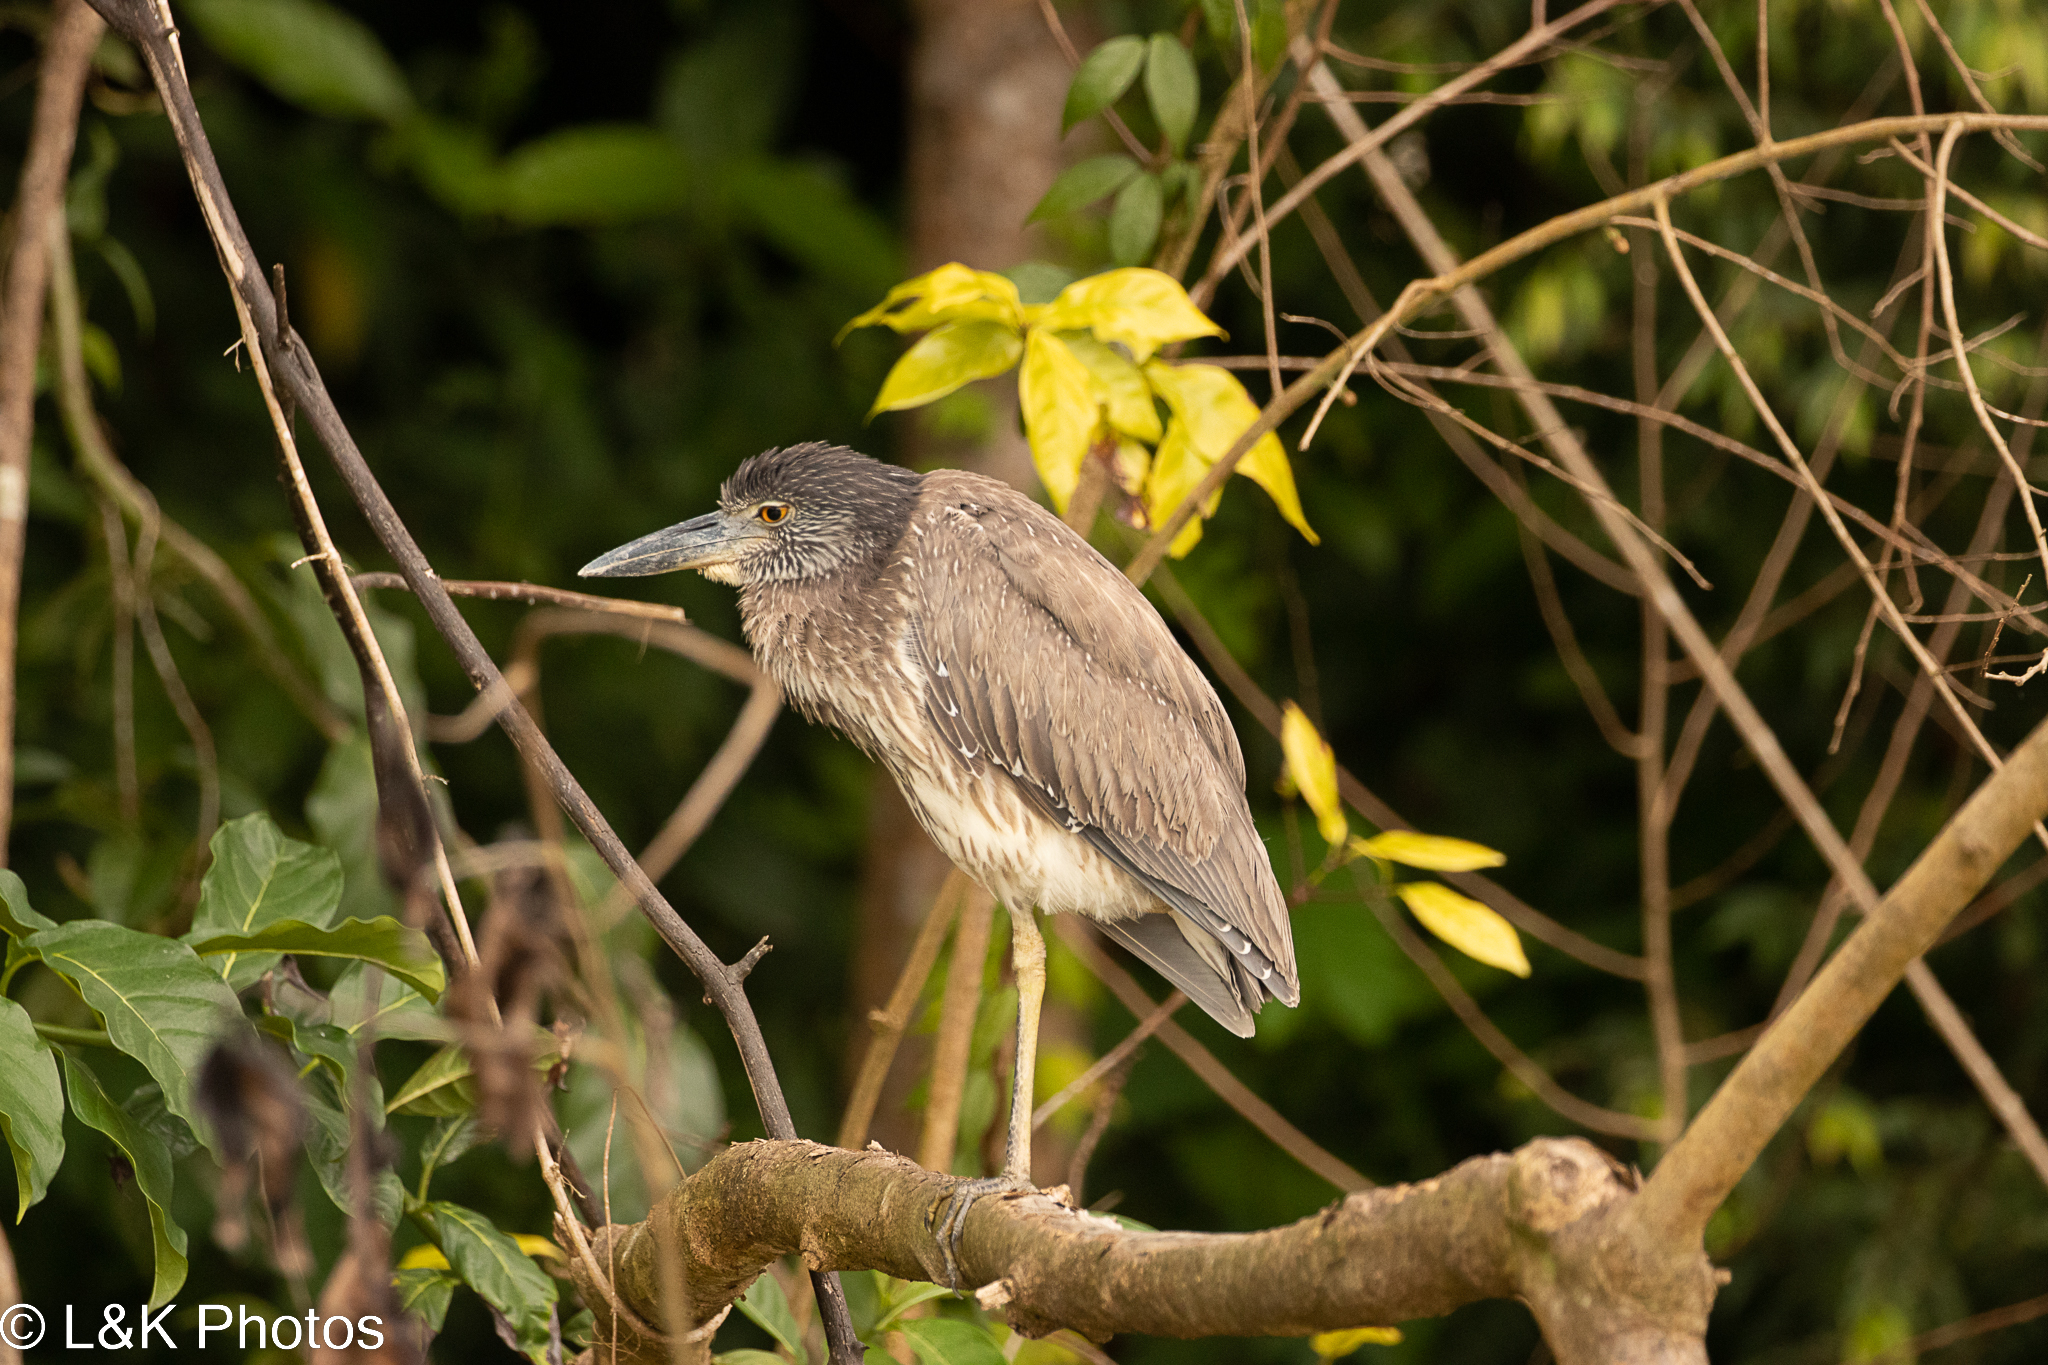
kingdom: Animalia
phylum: Chordata
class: Aves
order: Pelecaniformes
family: Ardeidae
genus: Nyctanassa
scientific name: Nyctanassa violacea
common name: Yellow-crowned night heron
